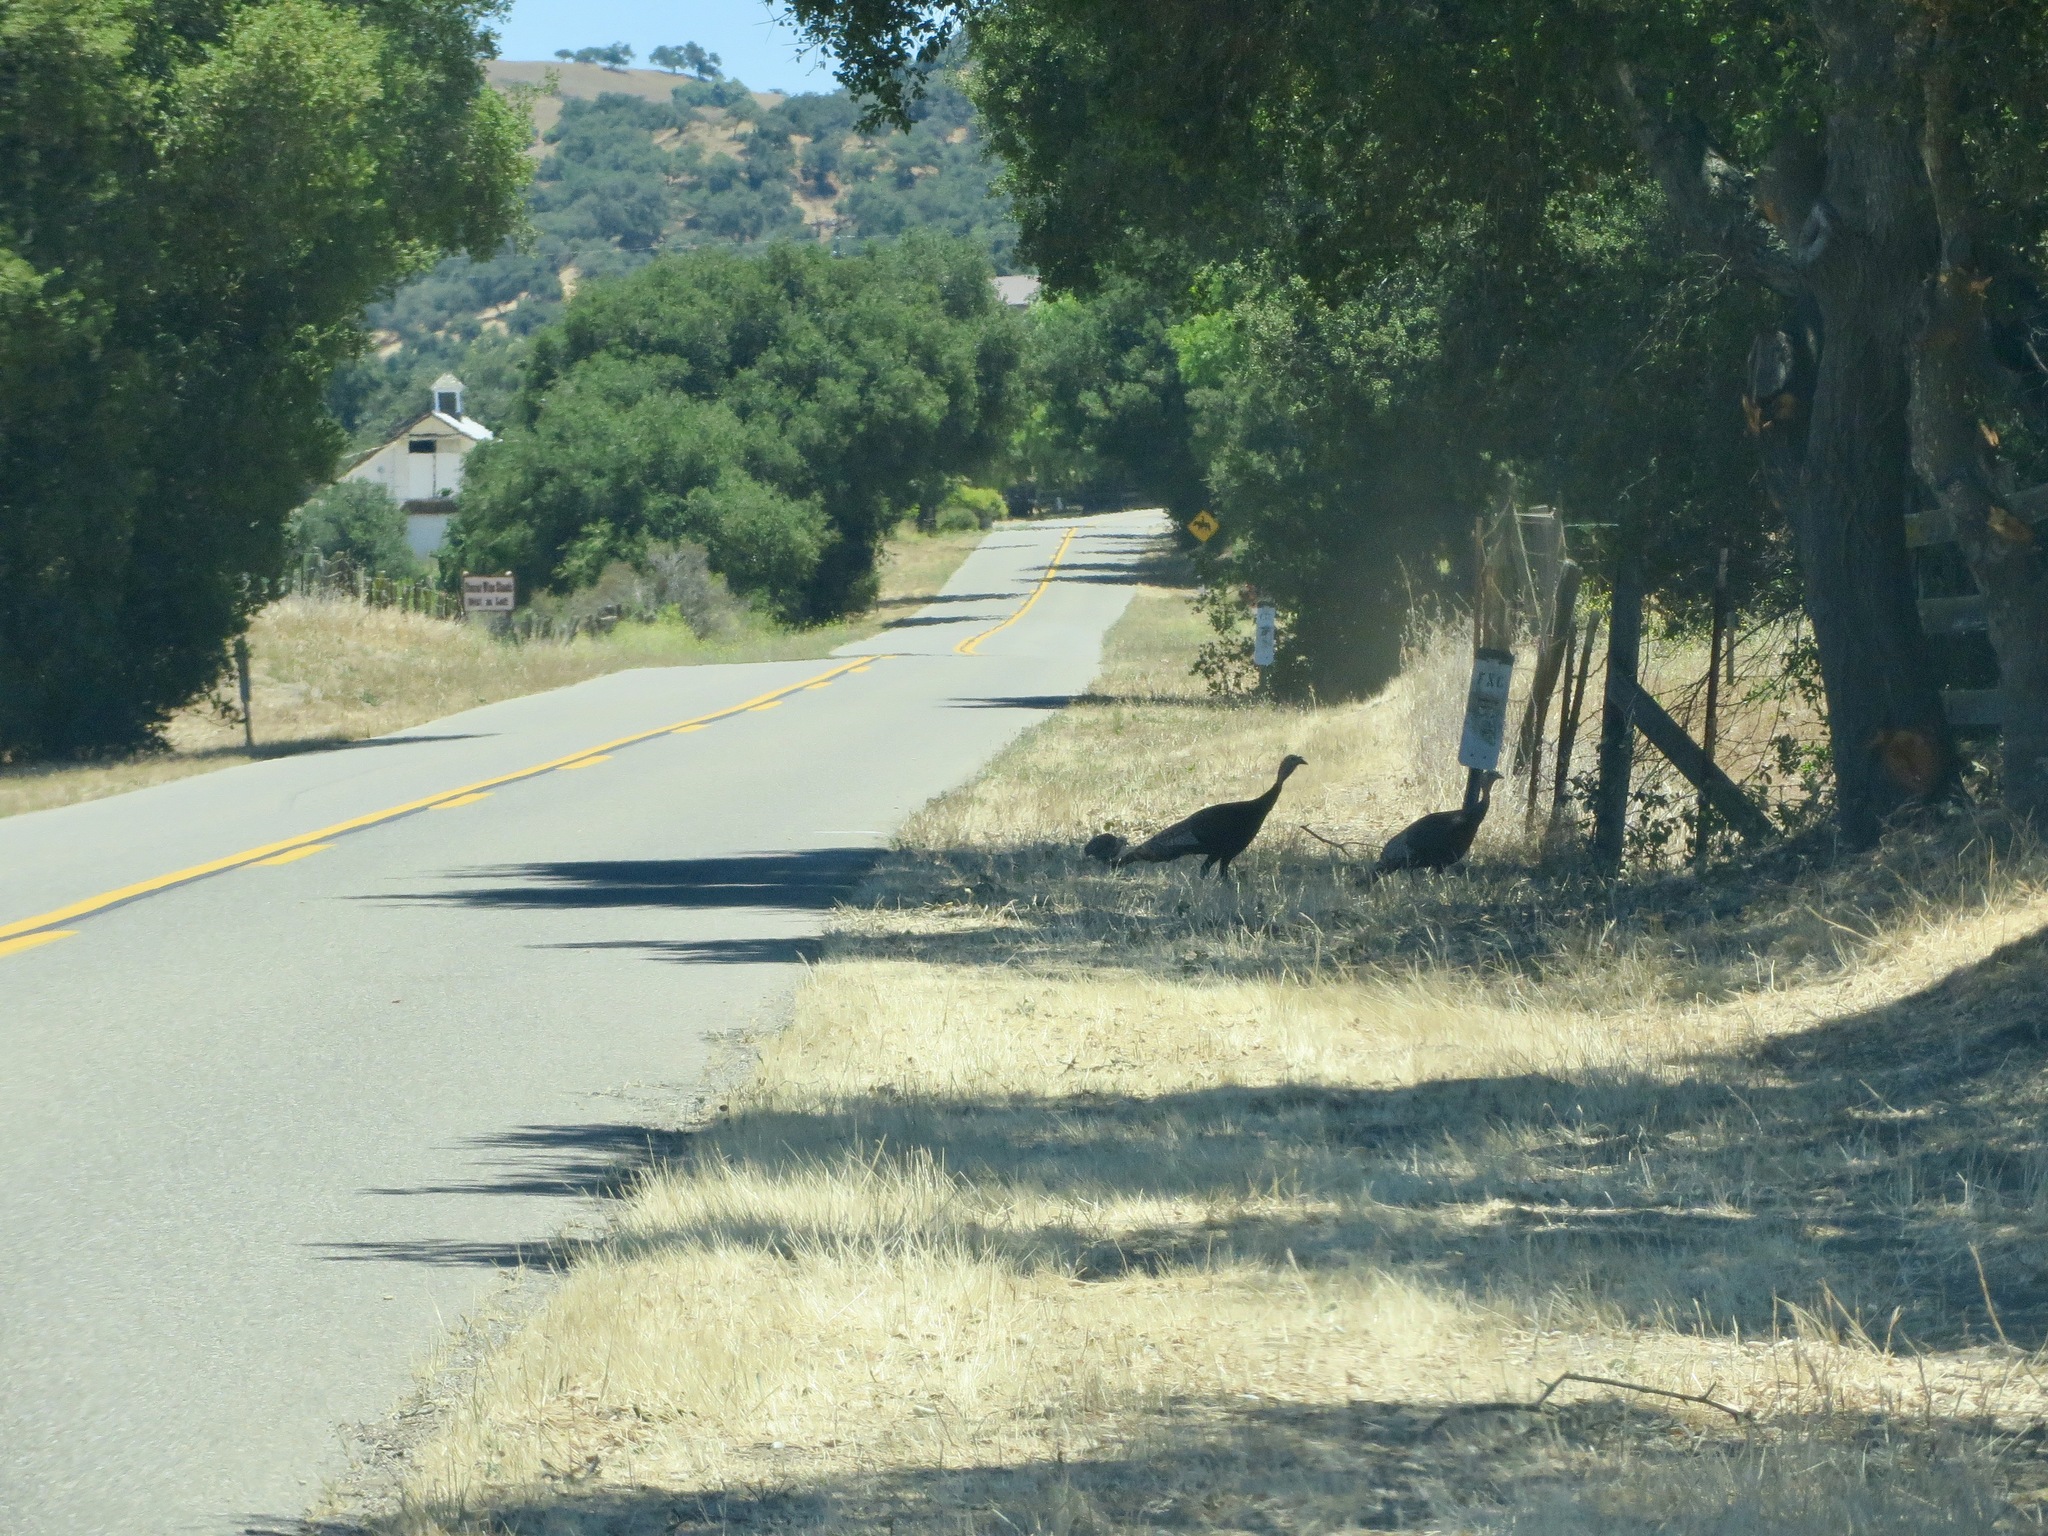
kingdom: Animalia
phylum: Chordata
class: Aves
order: Galliformes
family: Phasianidae
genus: Meleagris
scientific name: Meleagris gallopavo
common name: Wild turkey
